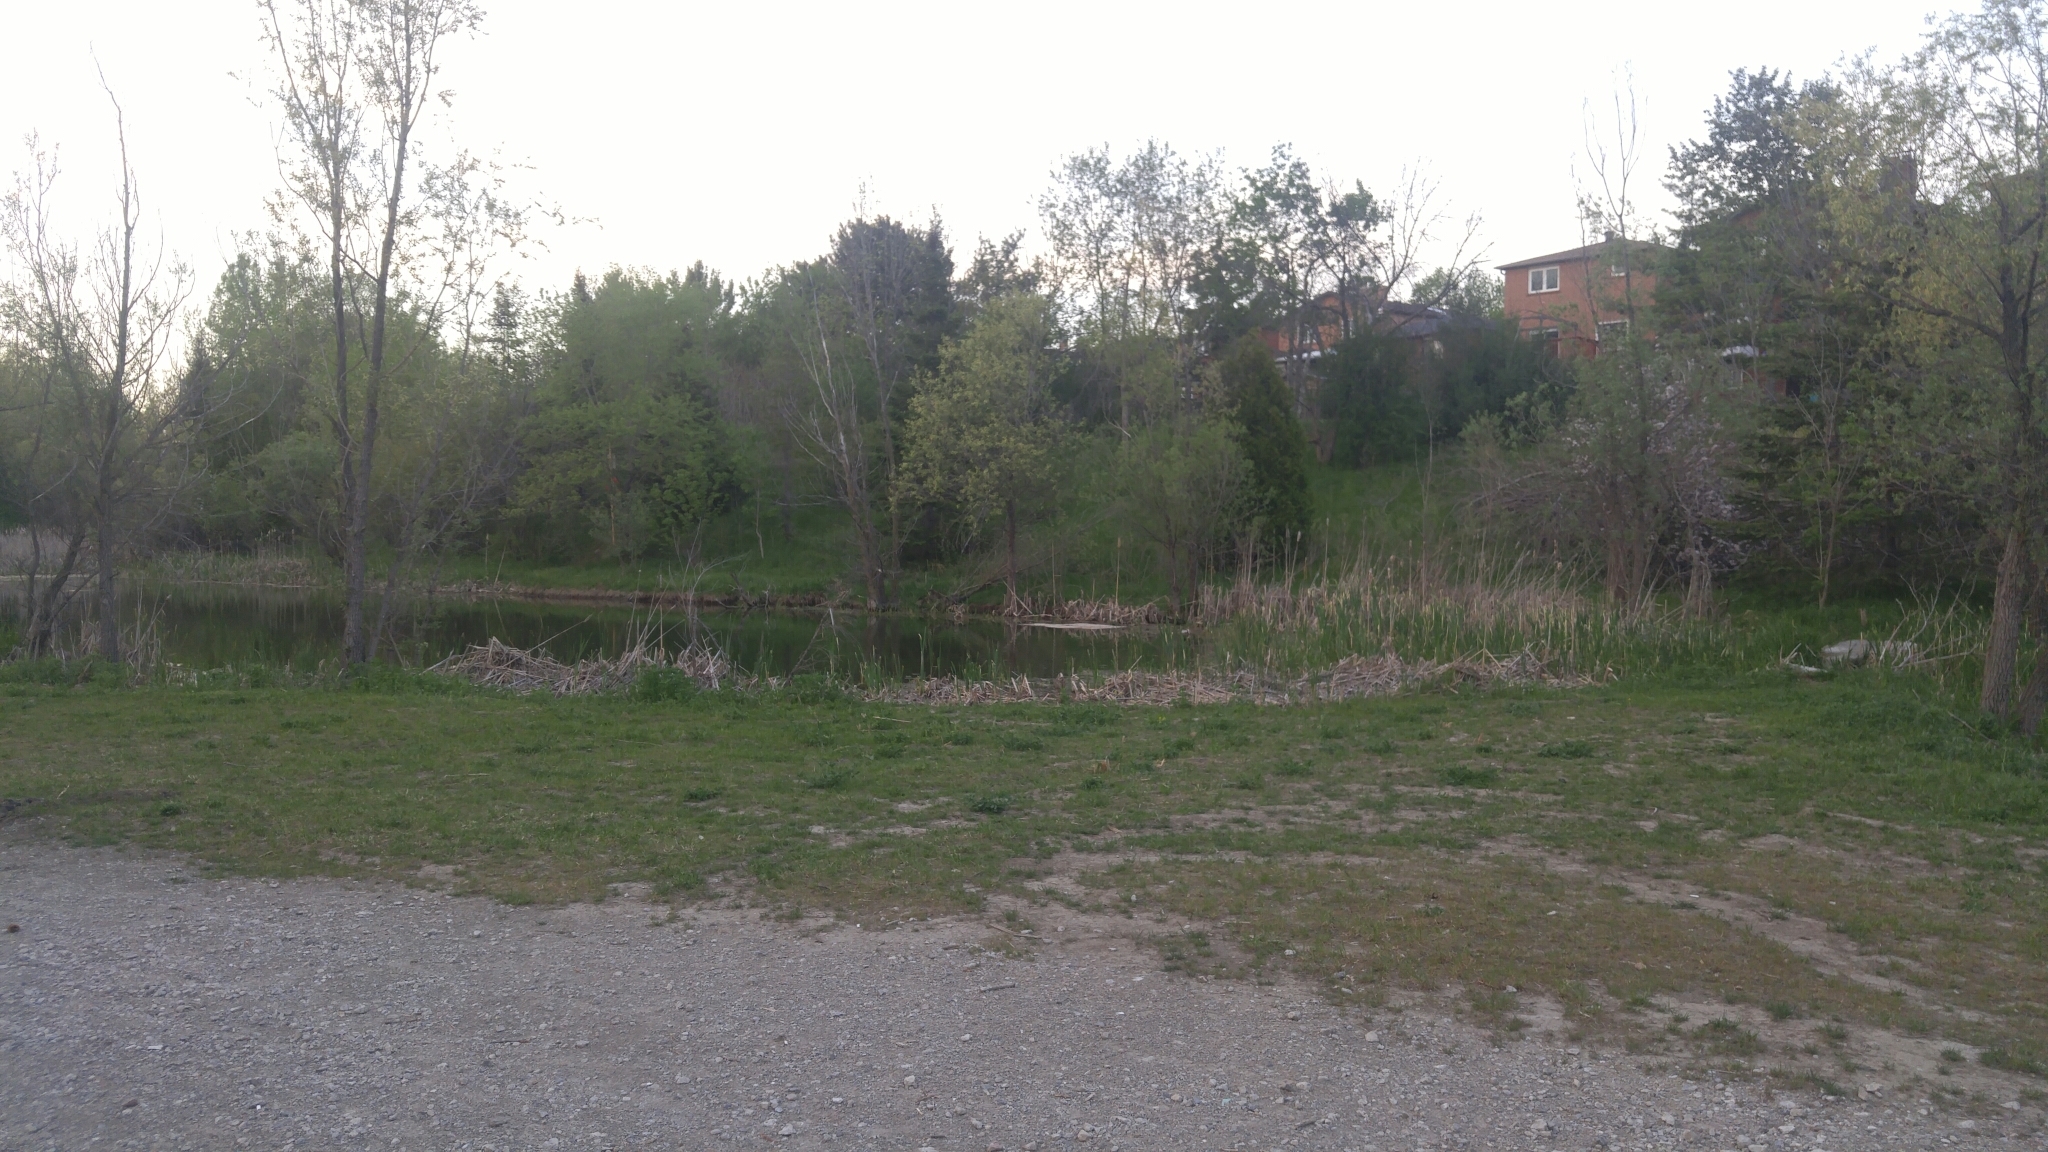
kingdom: Animalia
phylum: Chordata
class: Amphibia
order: Anura
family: Ranidae
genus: Lithobates
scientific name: Lithobates clamitans
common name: Green frog
